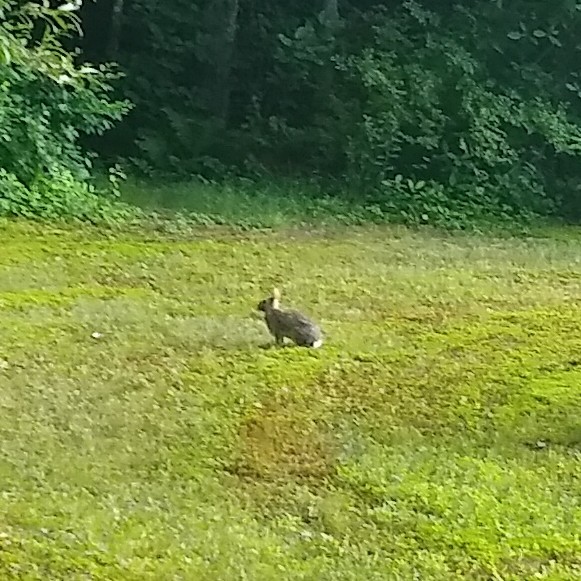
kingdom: Animalia
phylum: Chordata
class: Mammalia
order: Lagomorpha
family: Leporidae
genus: Sylvilagus
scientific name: Sylvilagus floridanus
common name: Eastern cottontail
